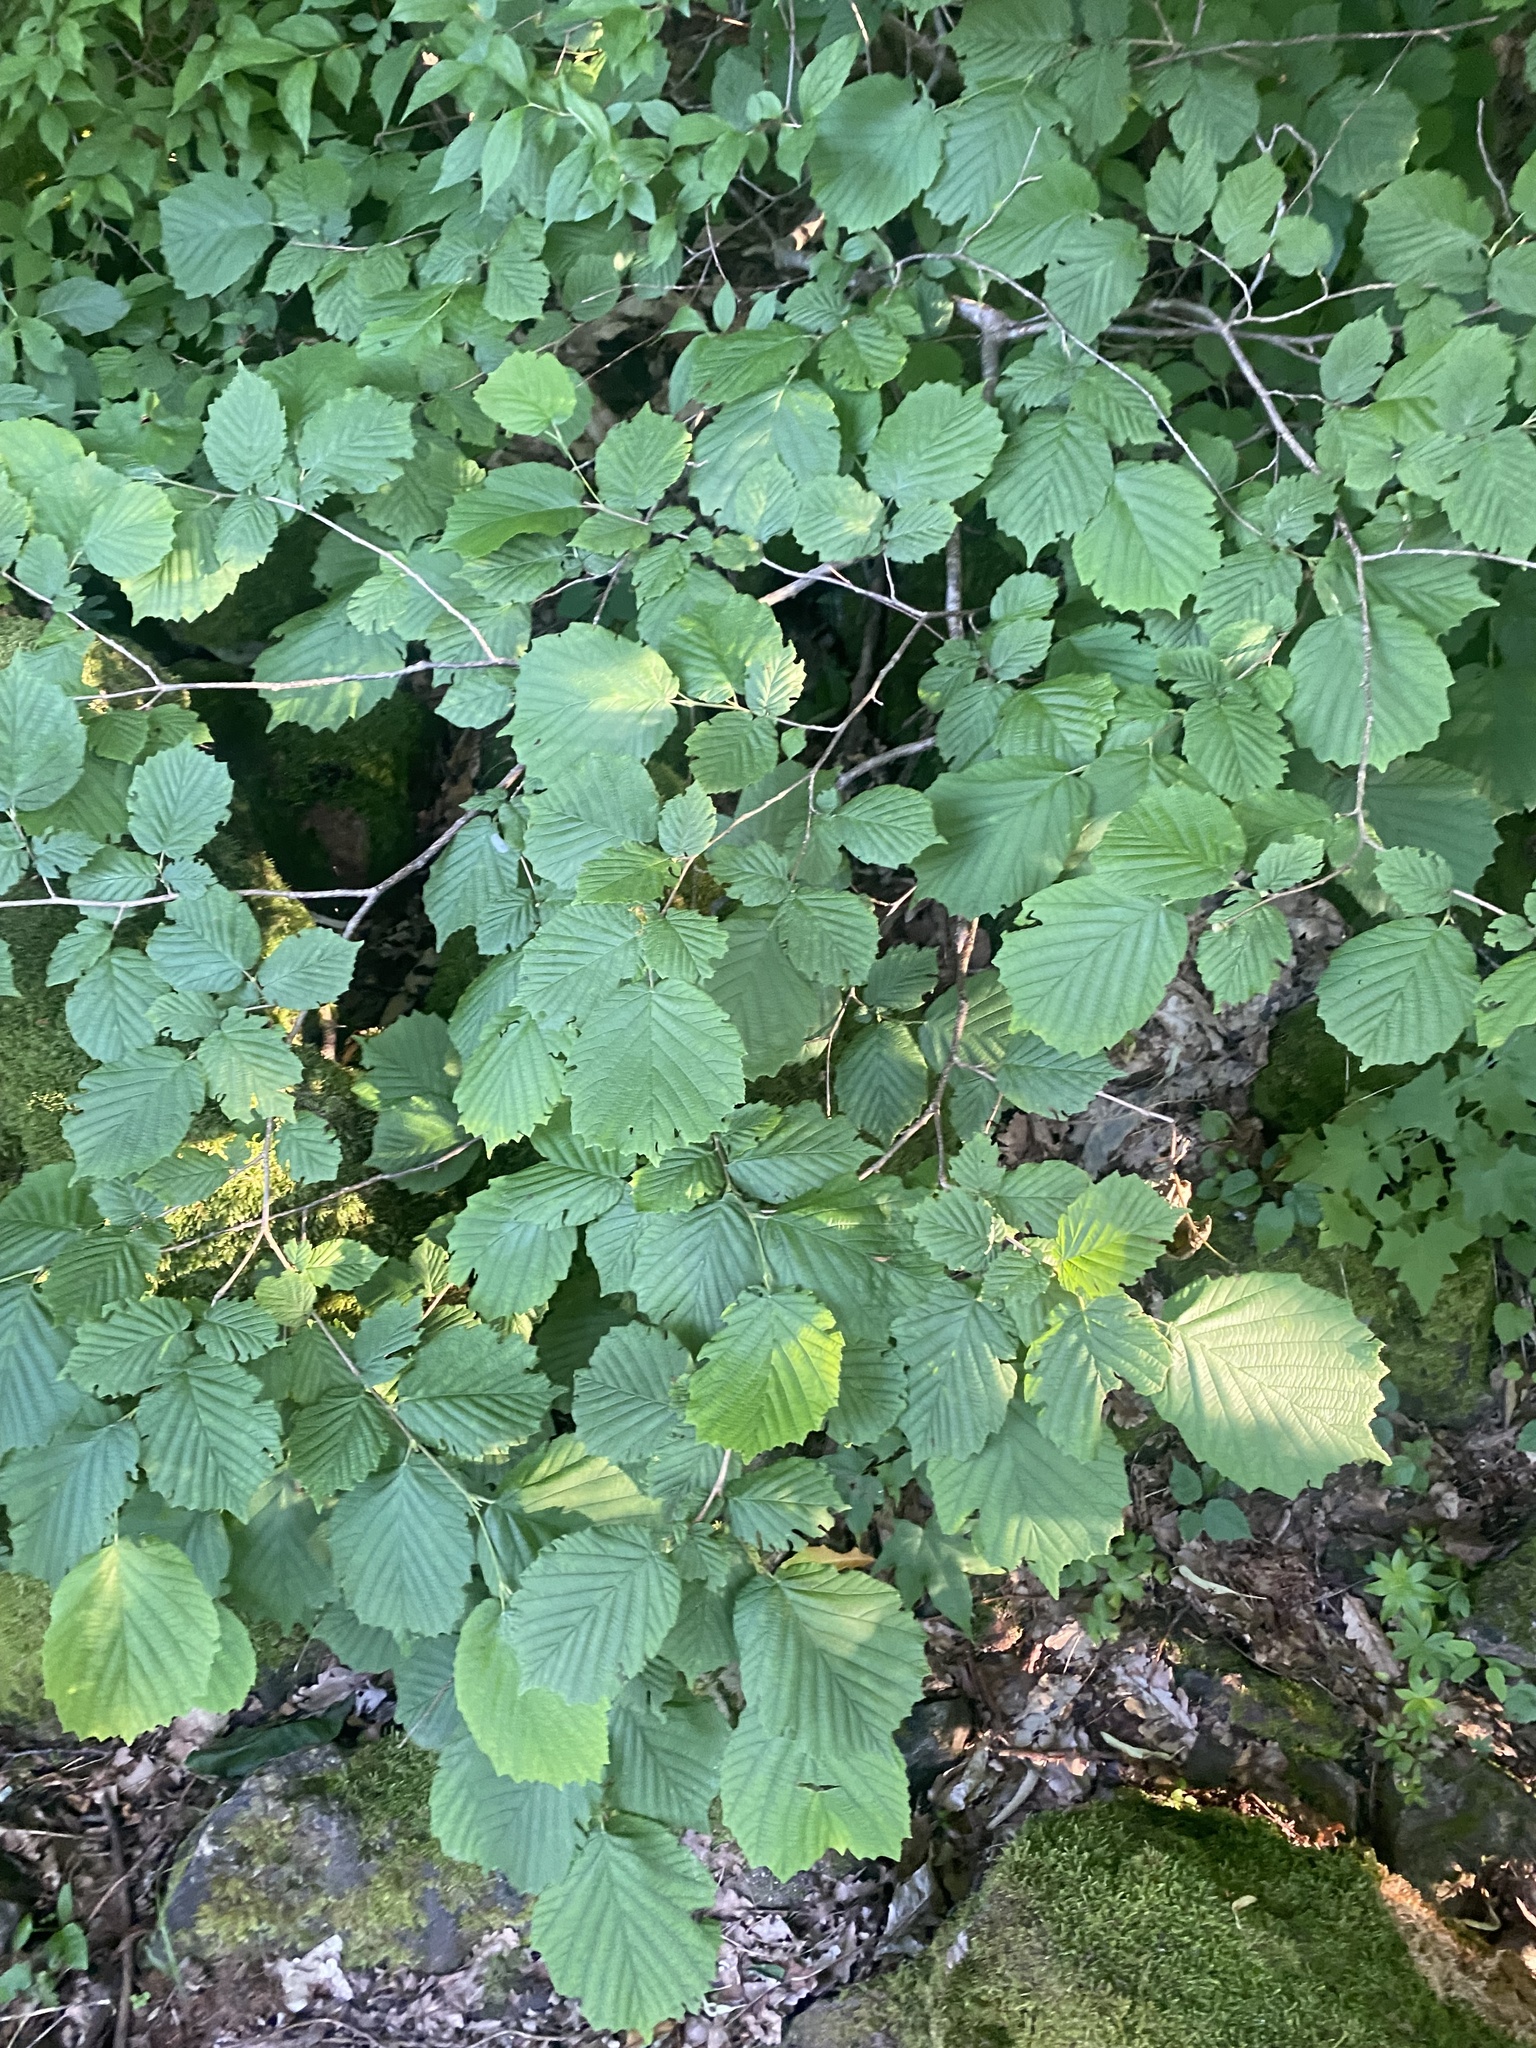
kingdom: Plantae
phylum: Tracheophyta
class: Magnoliopsida
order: Fagales
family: Betulaceae
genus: Corylus
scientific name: Corylus avellana
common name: European hazel
